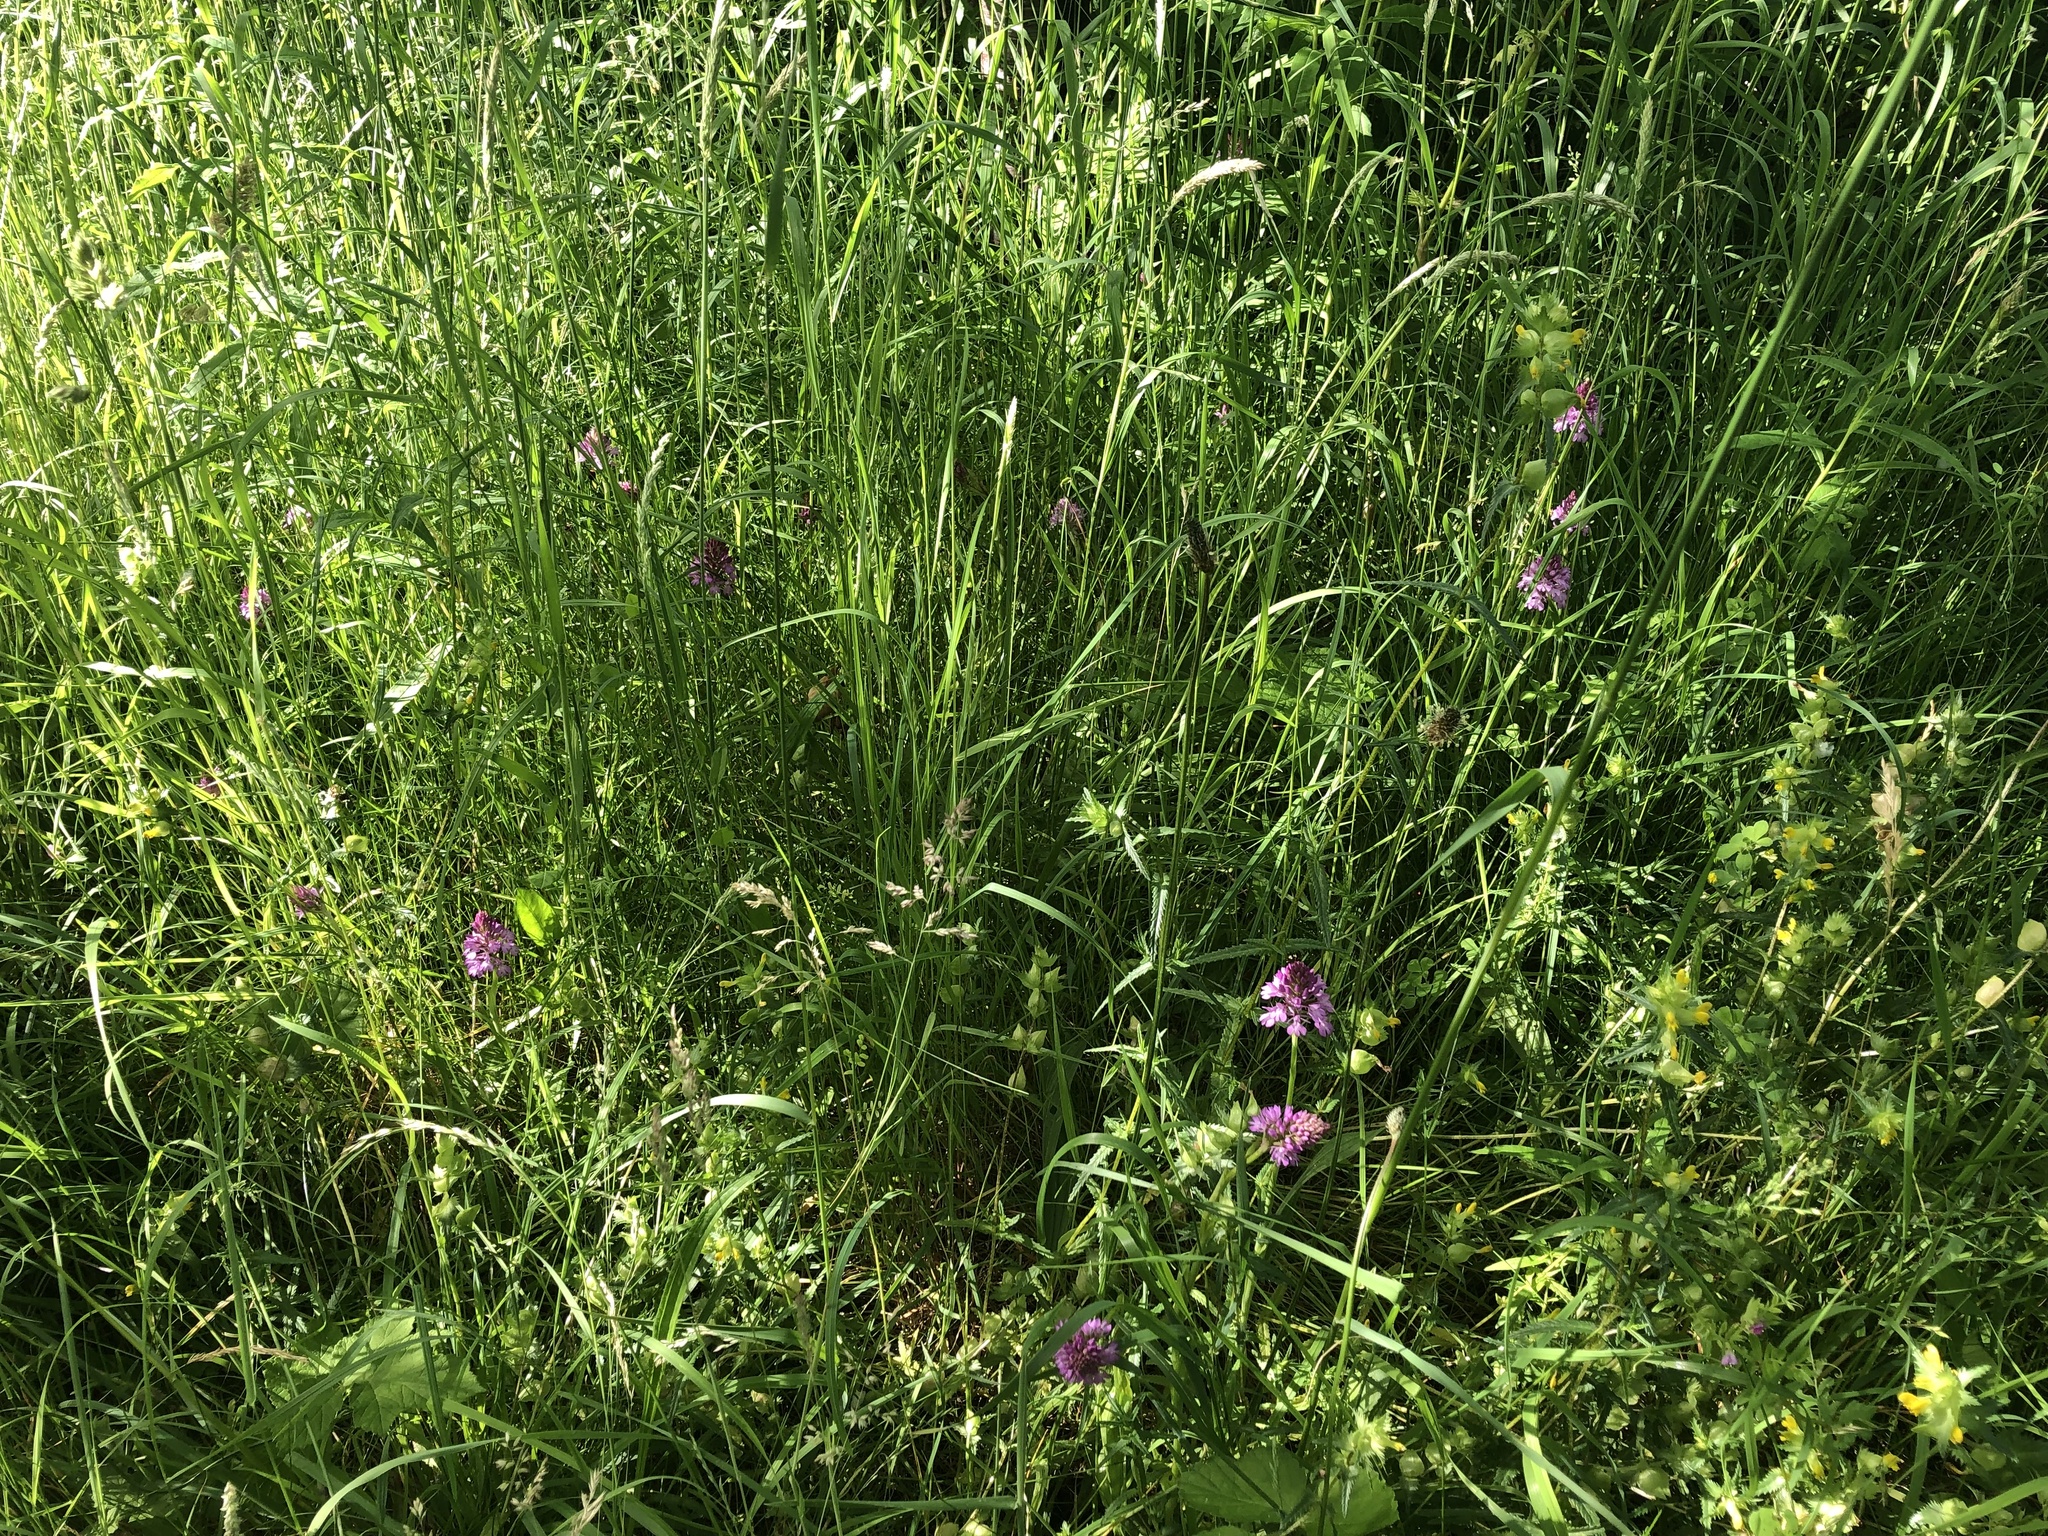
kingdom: Plantae
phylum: Tracheophyta
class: Liliopsida
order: Asparagales
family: Orchidaceae
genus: Anacamptis
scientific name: Anacamptis pyramidalis
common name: Pyramidal orchid
